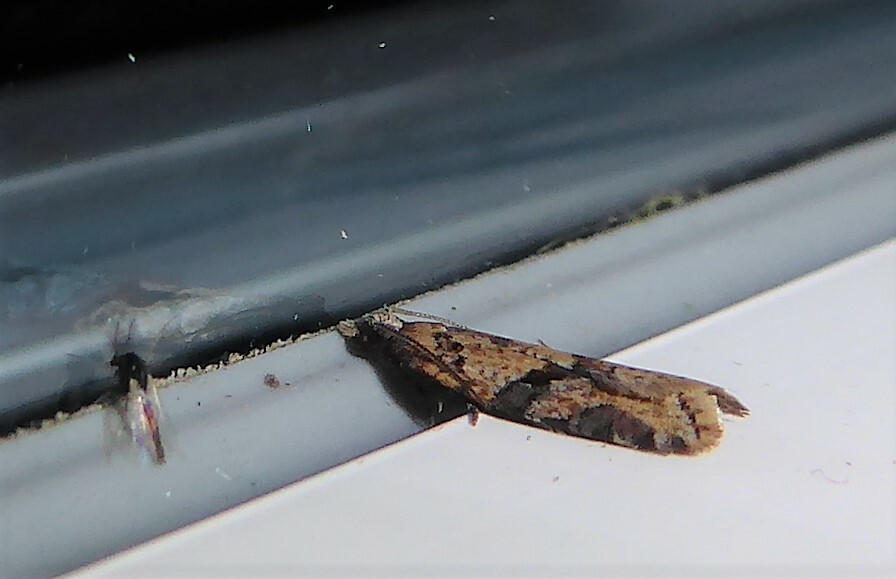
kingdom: Animalia
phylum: Arthropoda
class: Insecta
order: Lepidoptera
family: Tortricidae
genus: Capua
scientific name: Capua semiferana
